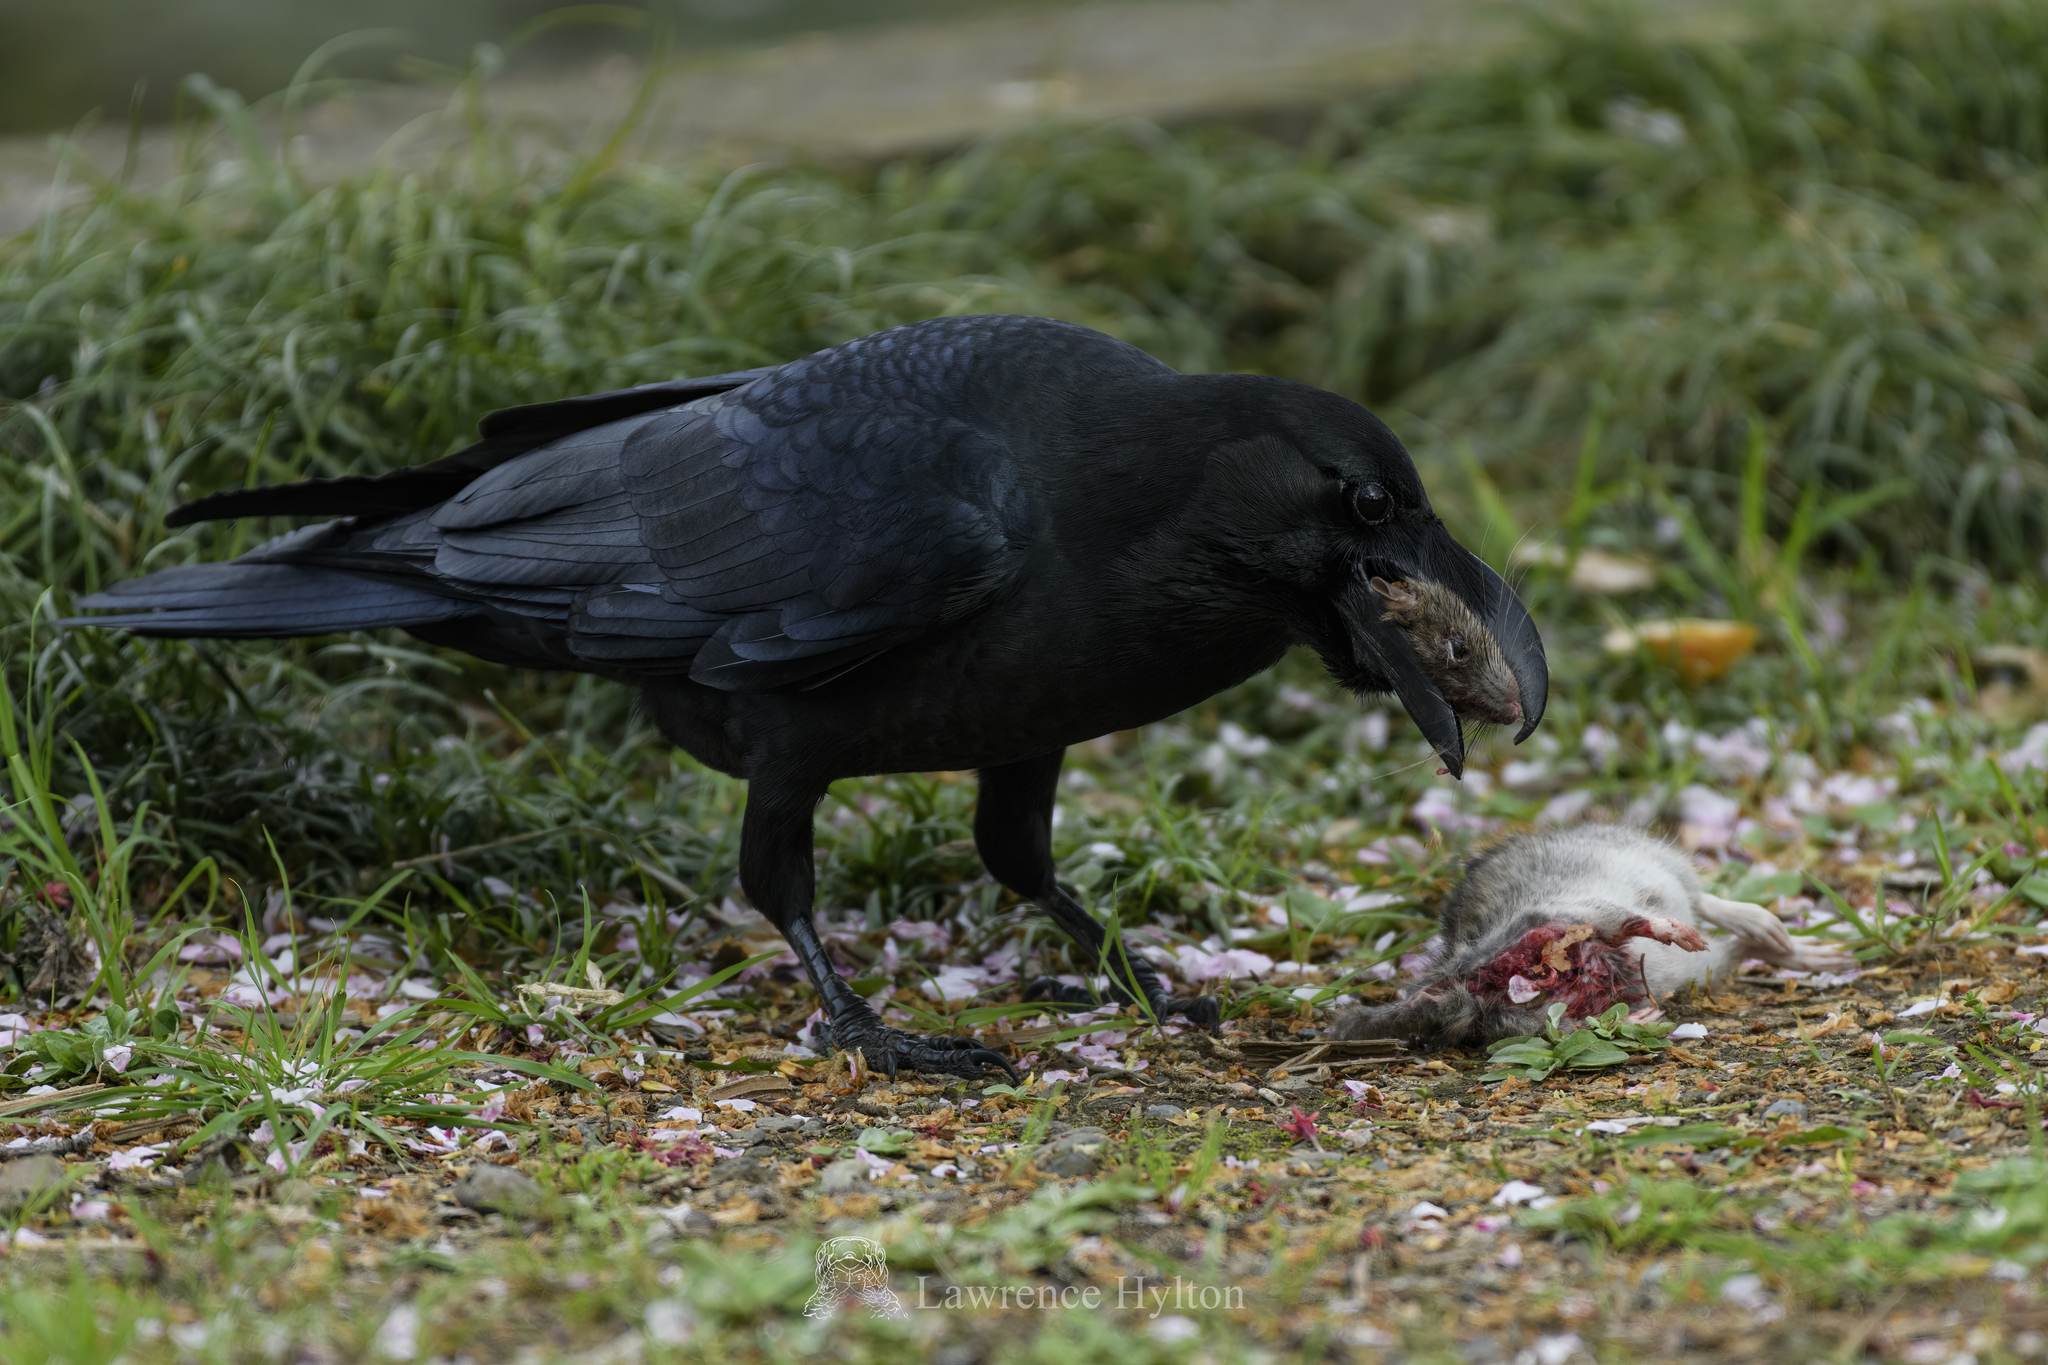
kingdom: Animalia
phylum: Chordata
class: Aves
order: Passeriformes
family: Corvidae
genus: Corvus
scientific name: Corvus macrorhynchos
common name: Large-billed crow
